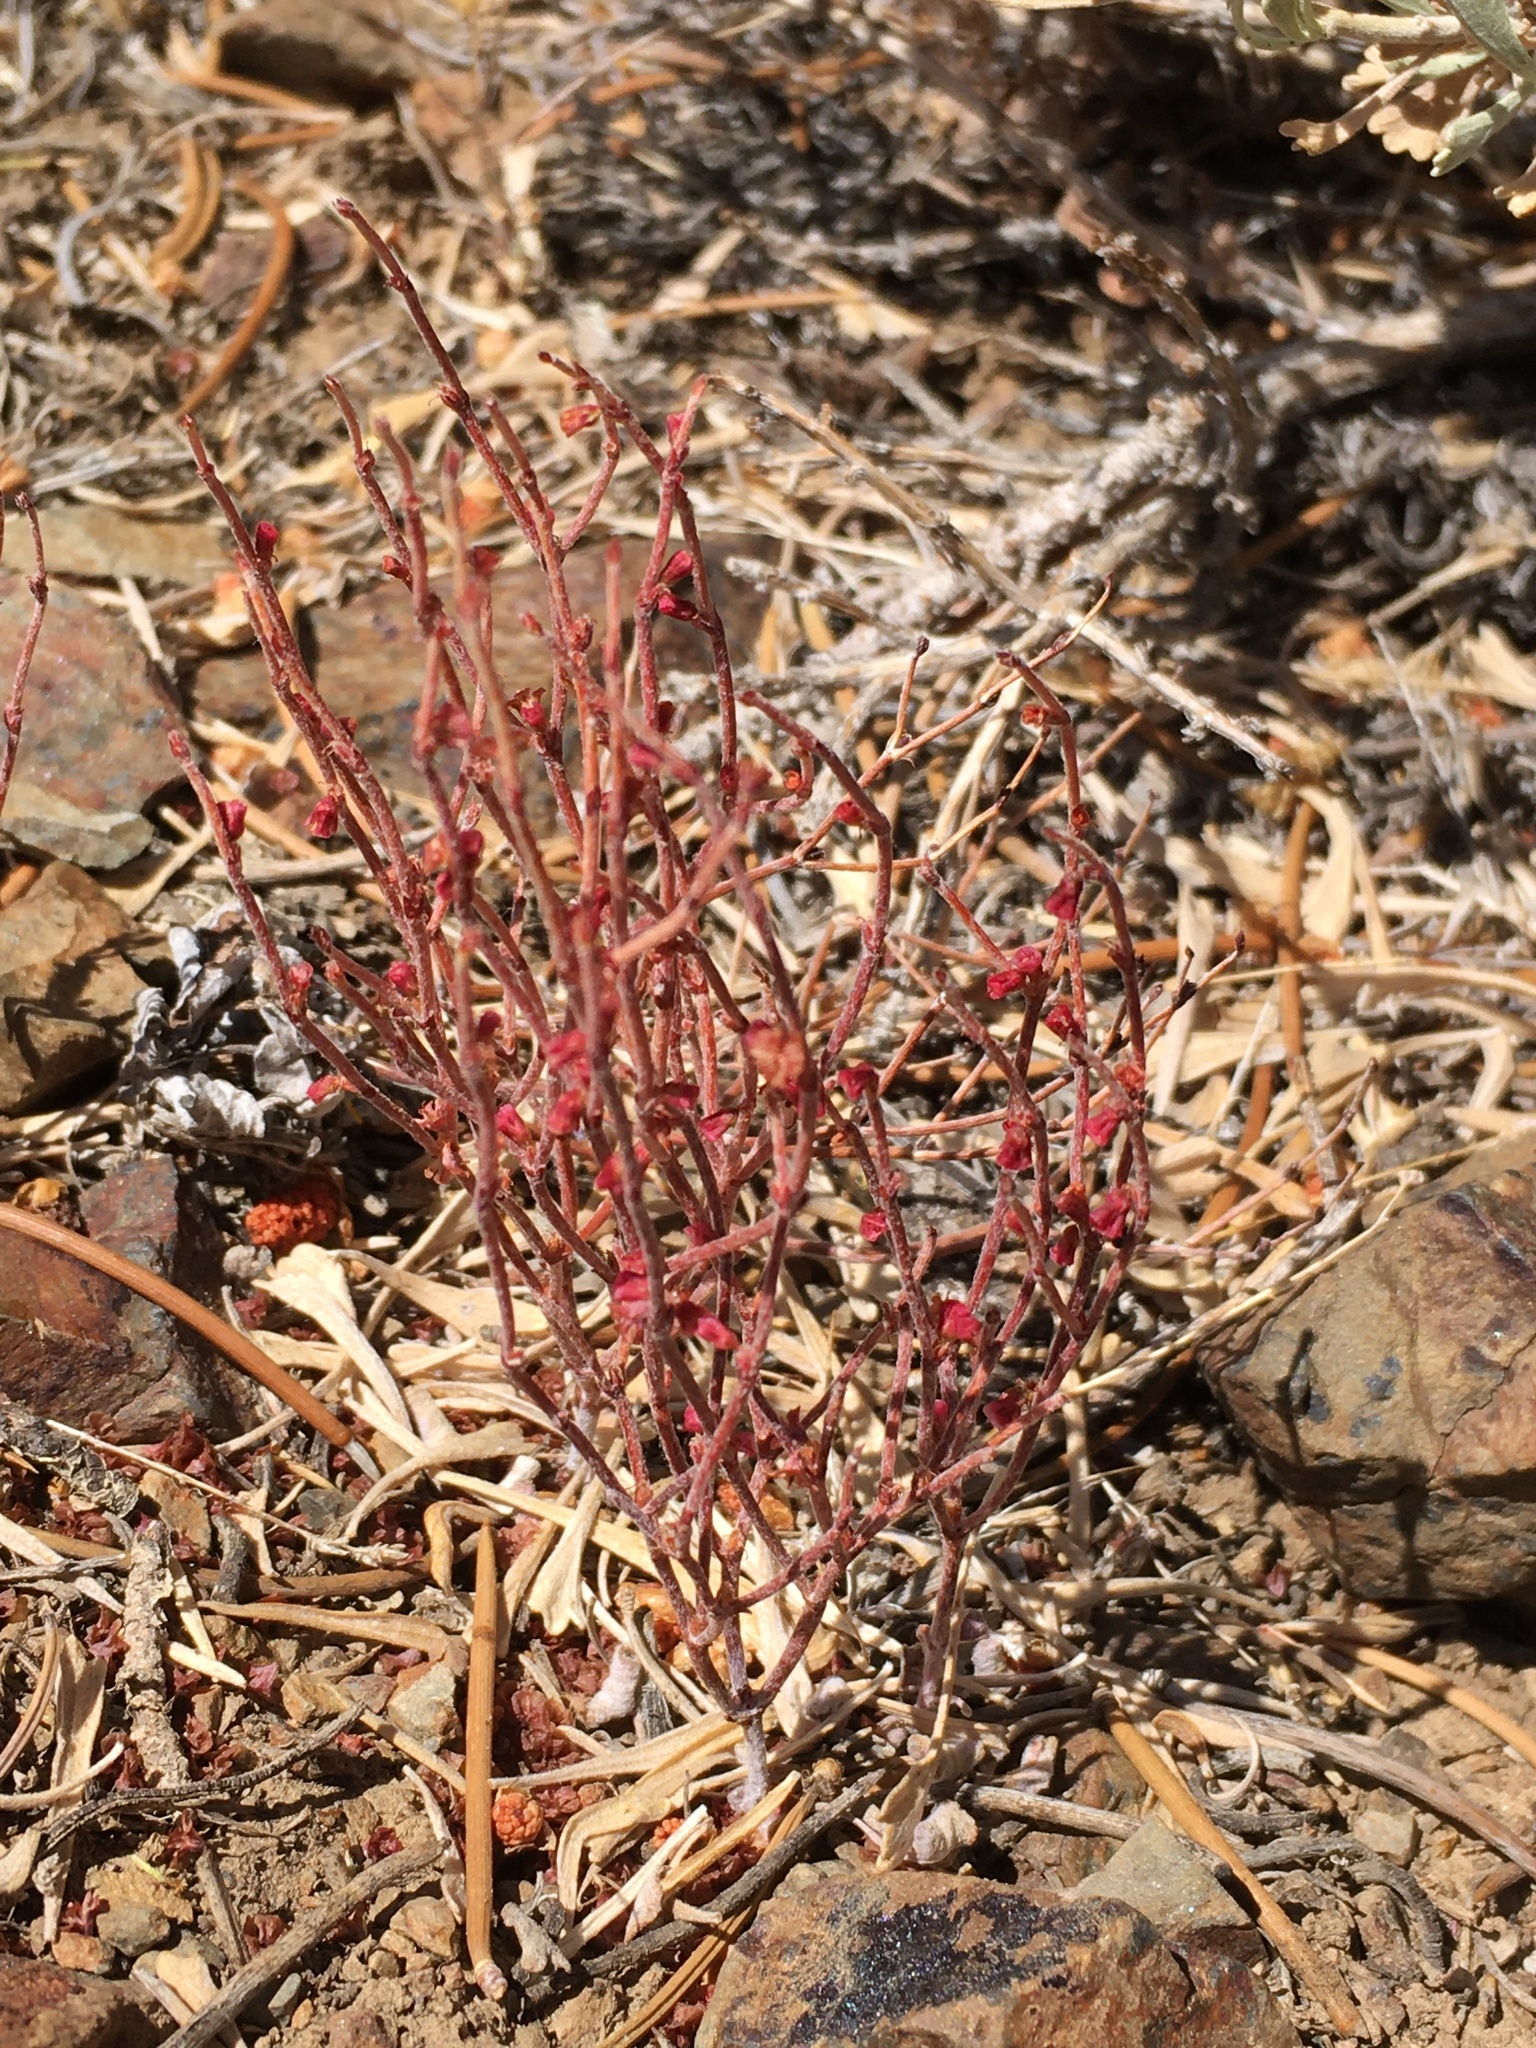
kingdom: Plantae
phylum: Tracheophyta
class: Magnoliopsida
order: Caryophyllales
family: Polygonaceae
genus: Eriogonum
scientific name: Eriogonum nidularium
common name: Bird's-nest wild buckwheat
